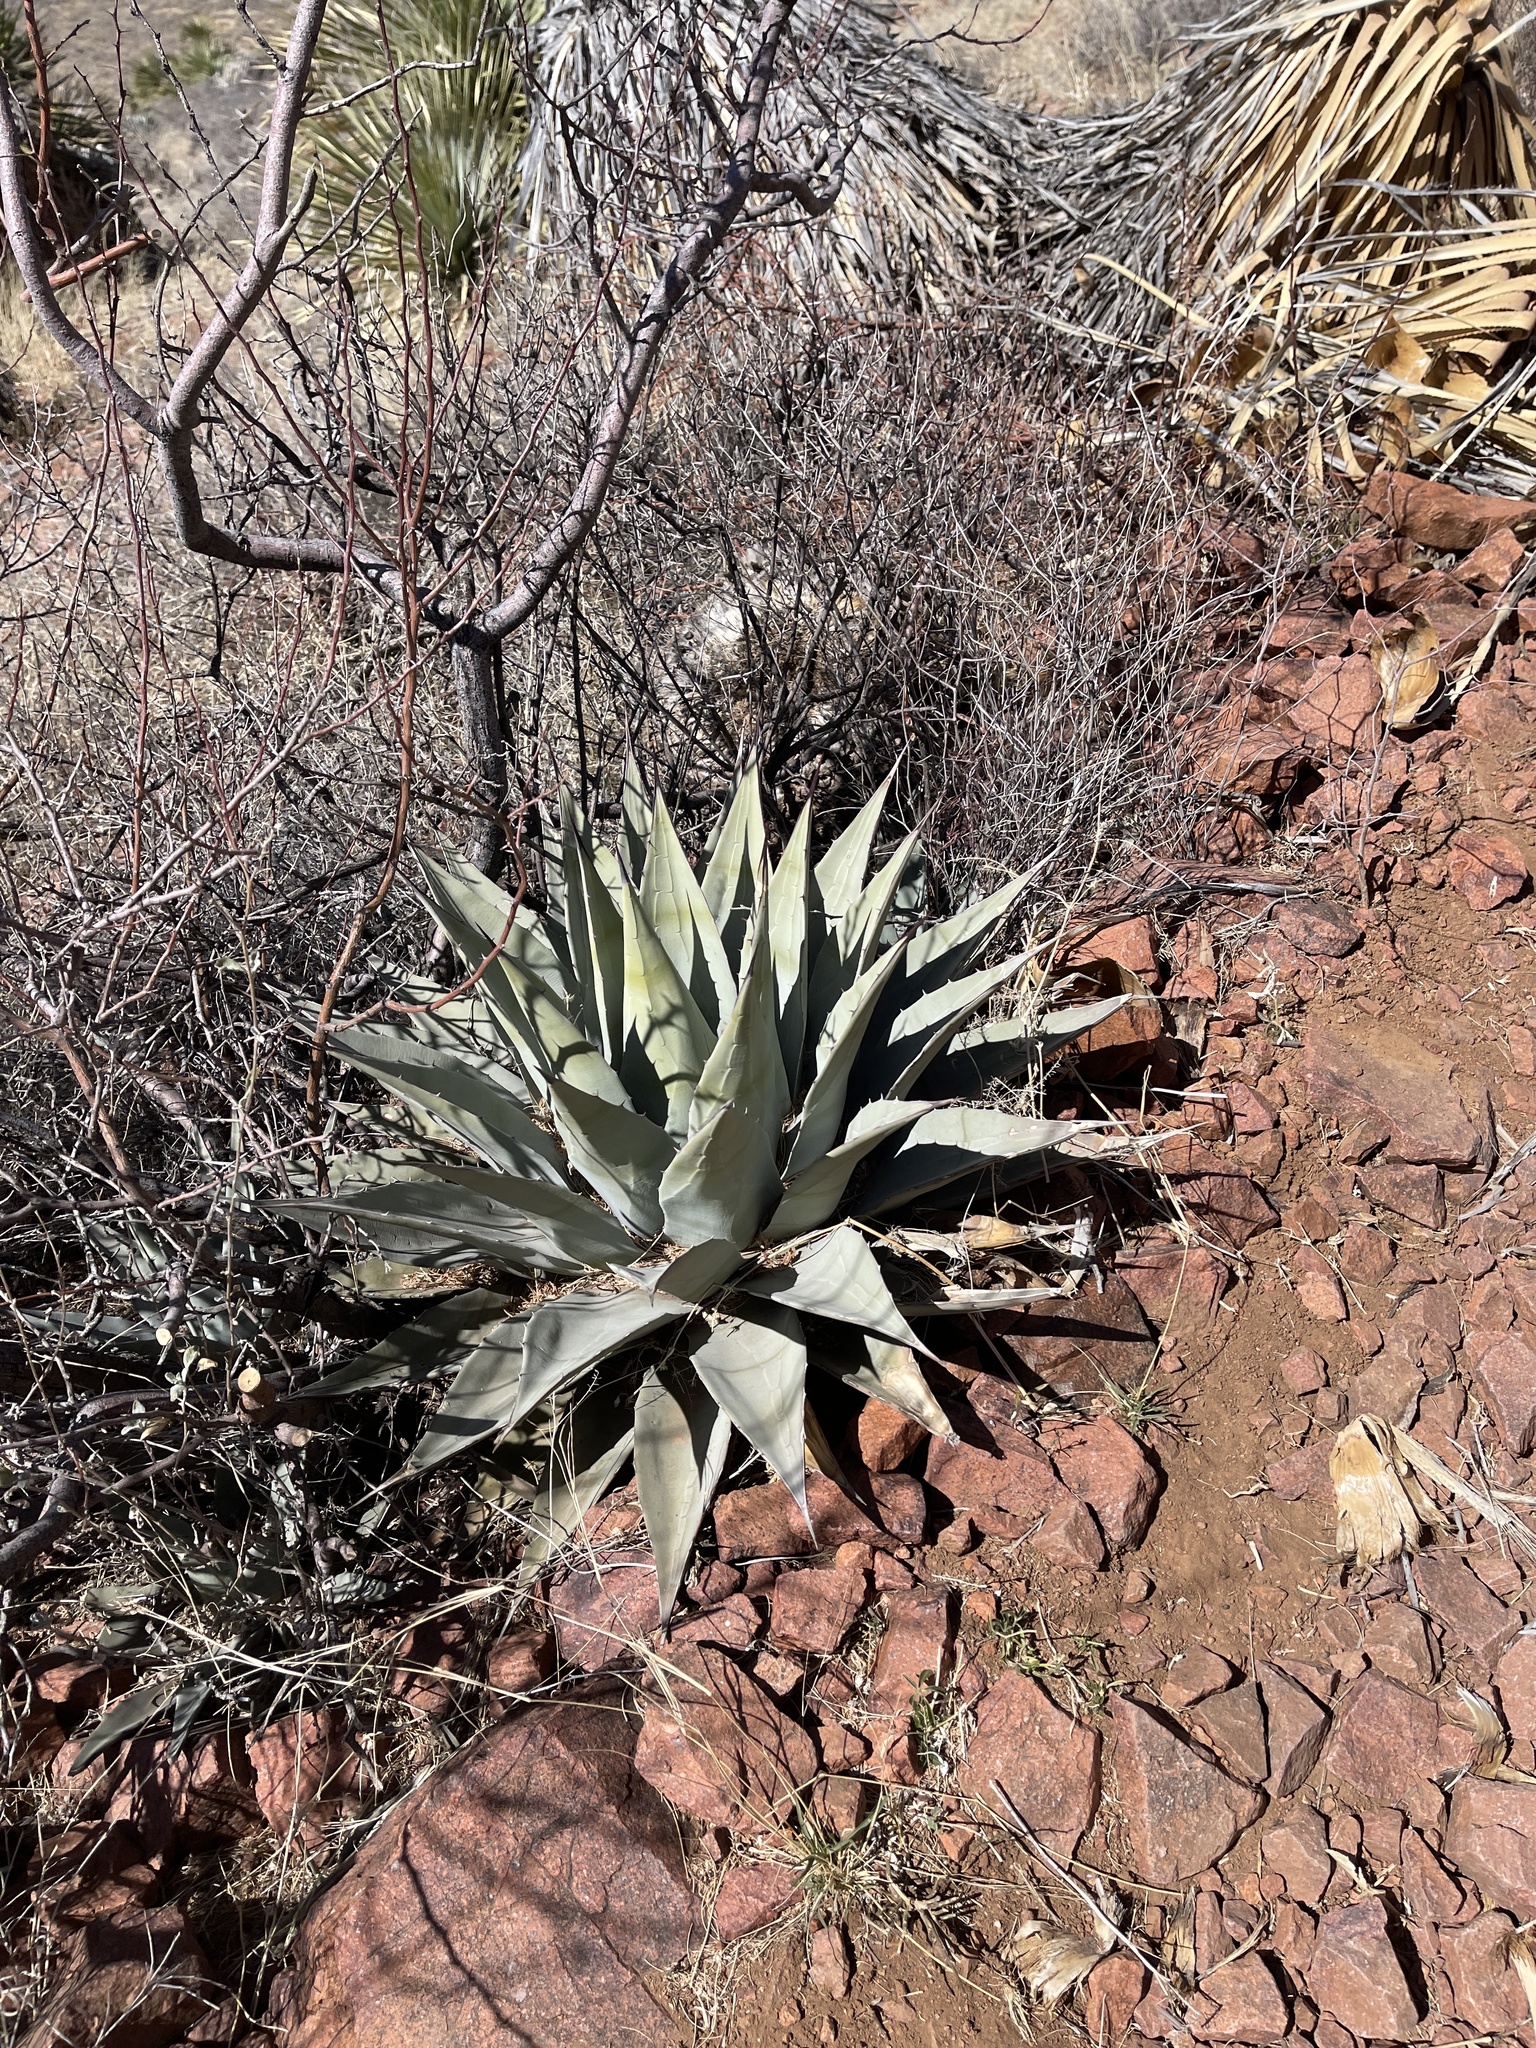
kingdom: Plantae
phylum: Tracheophyta
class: Liliopsida
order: Asparagales
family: Asparagaceae
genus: Agave
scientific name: Agave parryi
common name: Parry's agave
